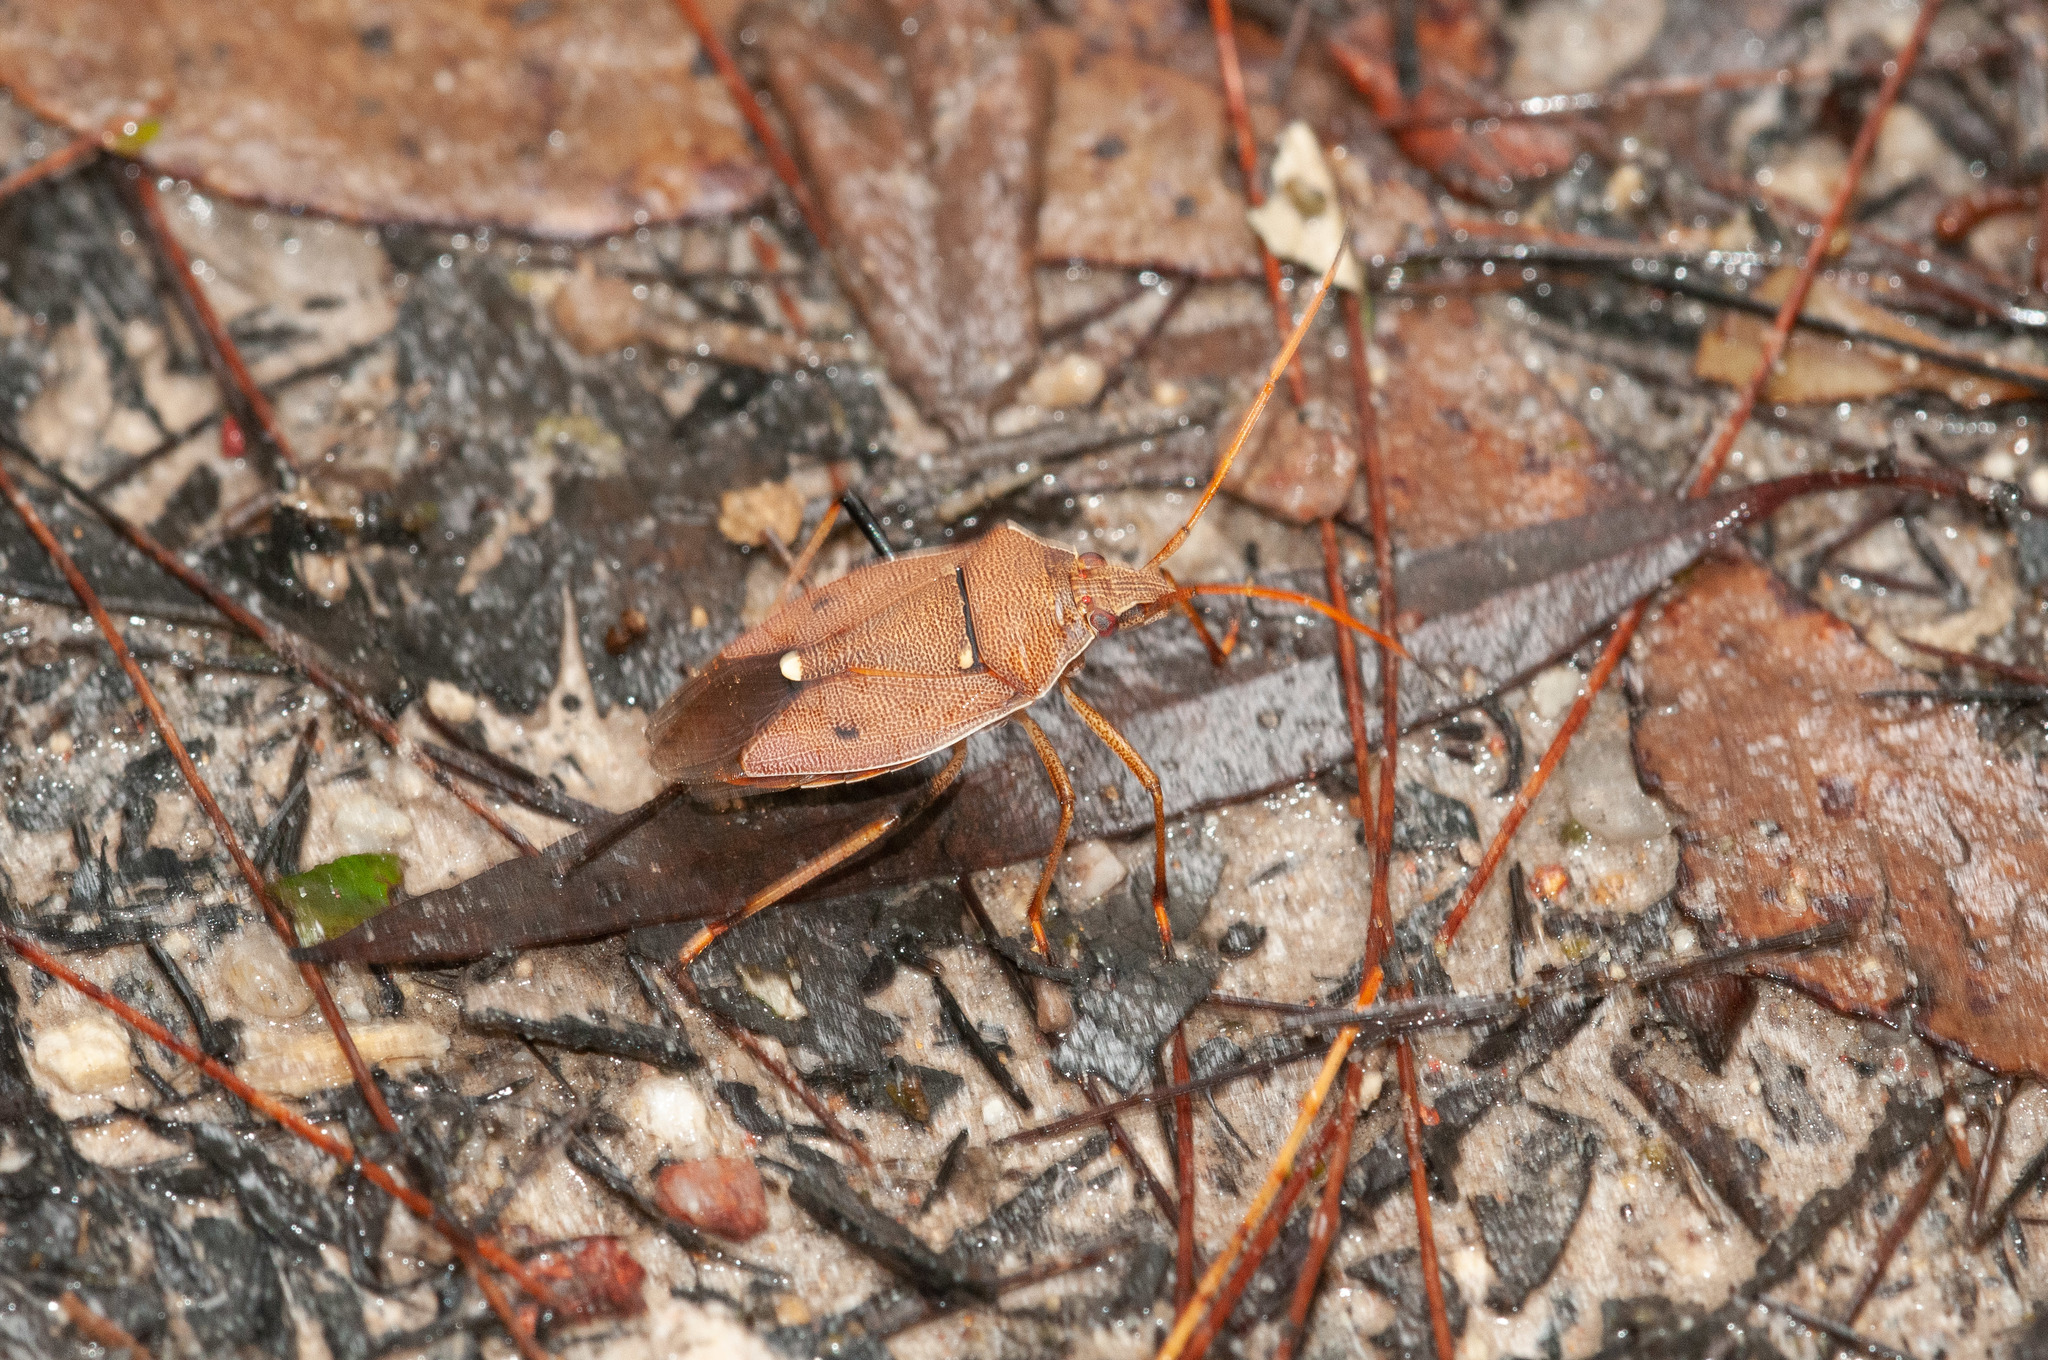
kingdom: Animalia
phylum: Arthropoda
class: Insecta
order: Hemiptera
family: Pentatomidae
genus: Poecilometis
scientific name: Poecilometis
